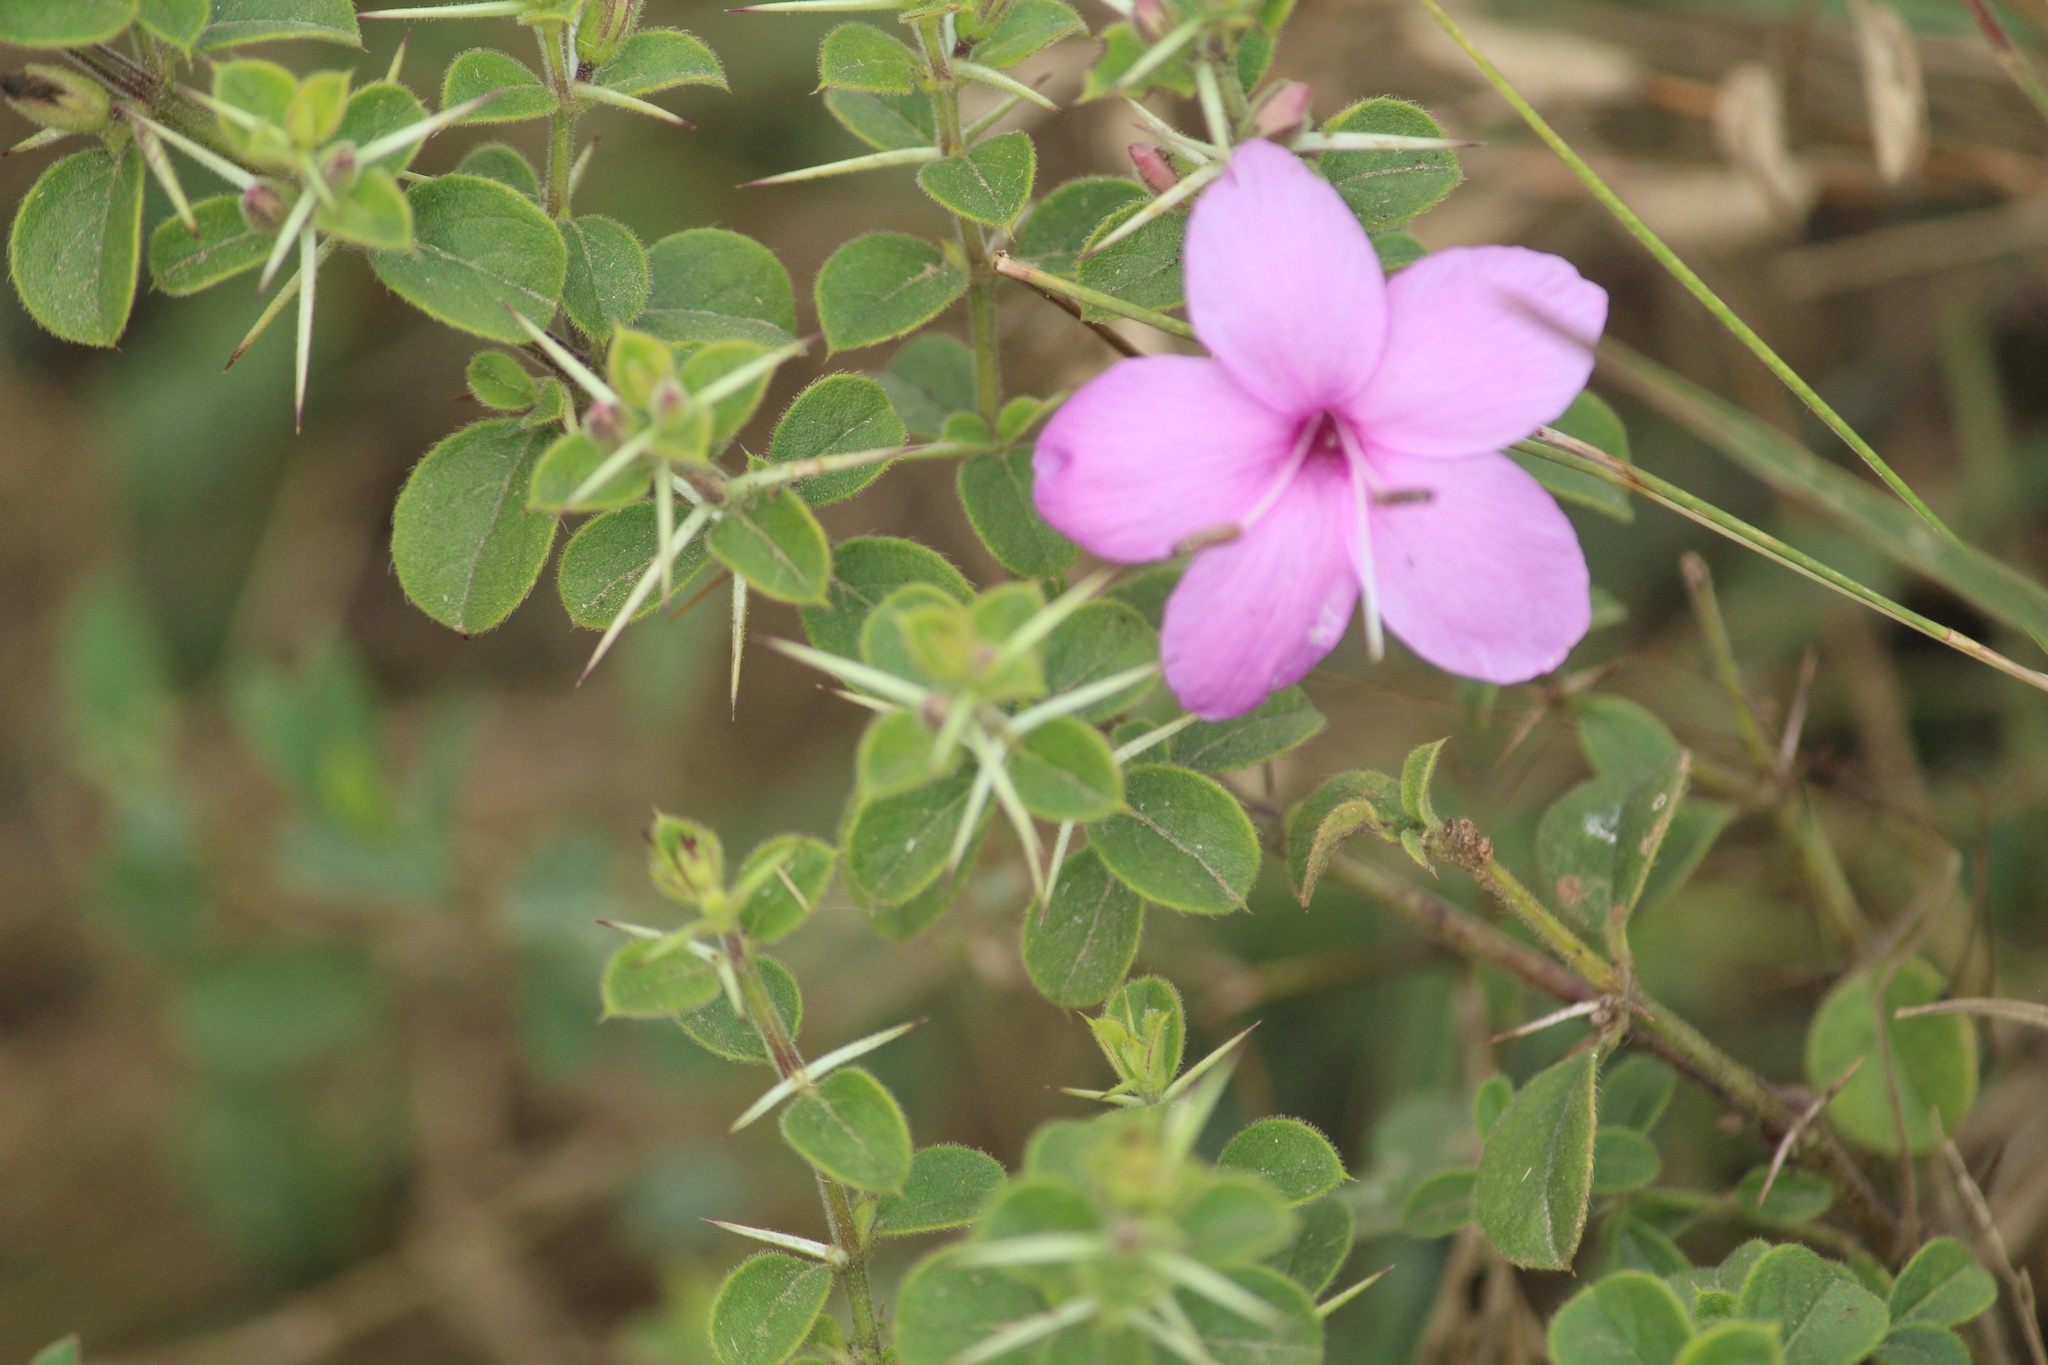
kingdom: Plantae
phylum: Tracheophyta
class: Magnoliopsida
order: Lamiales
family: Acanthaceae
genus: Barleria
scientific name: Barleria mysorensis
